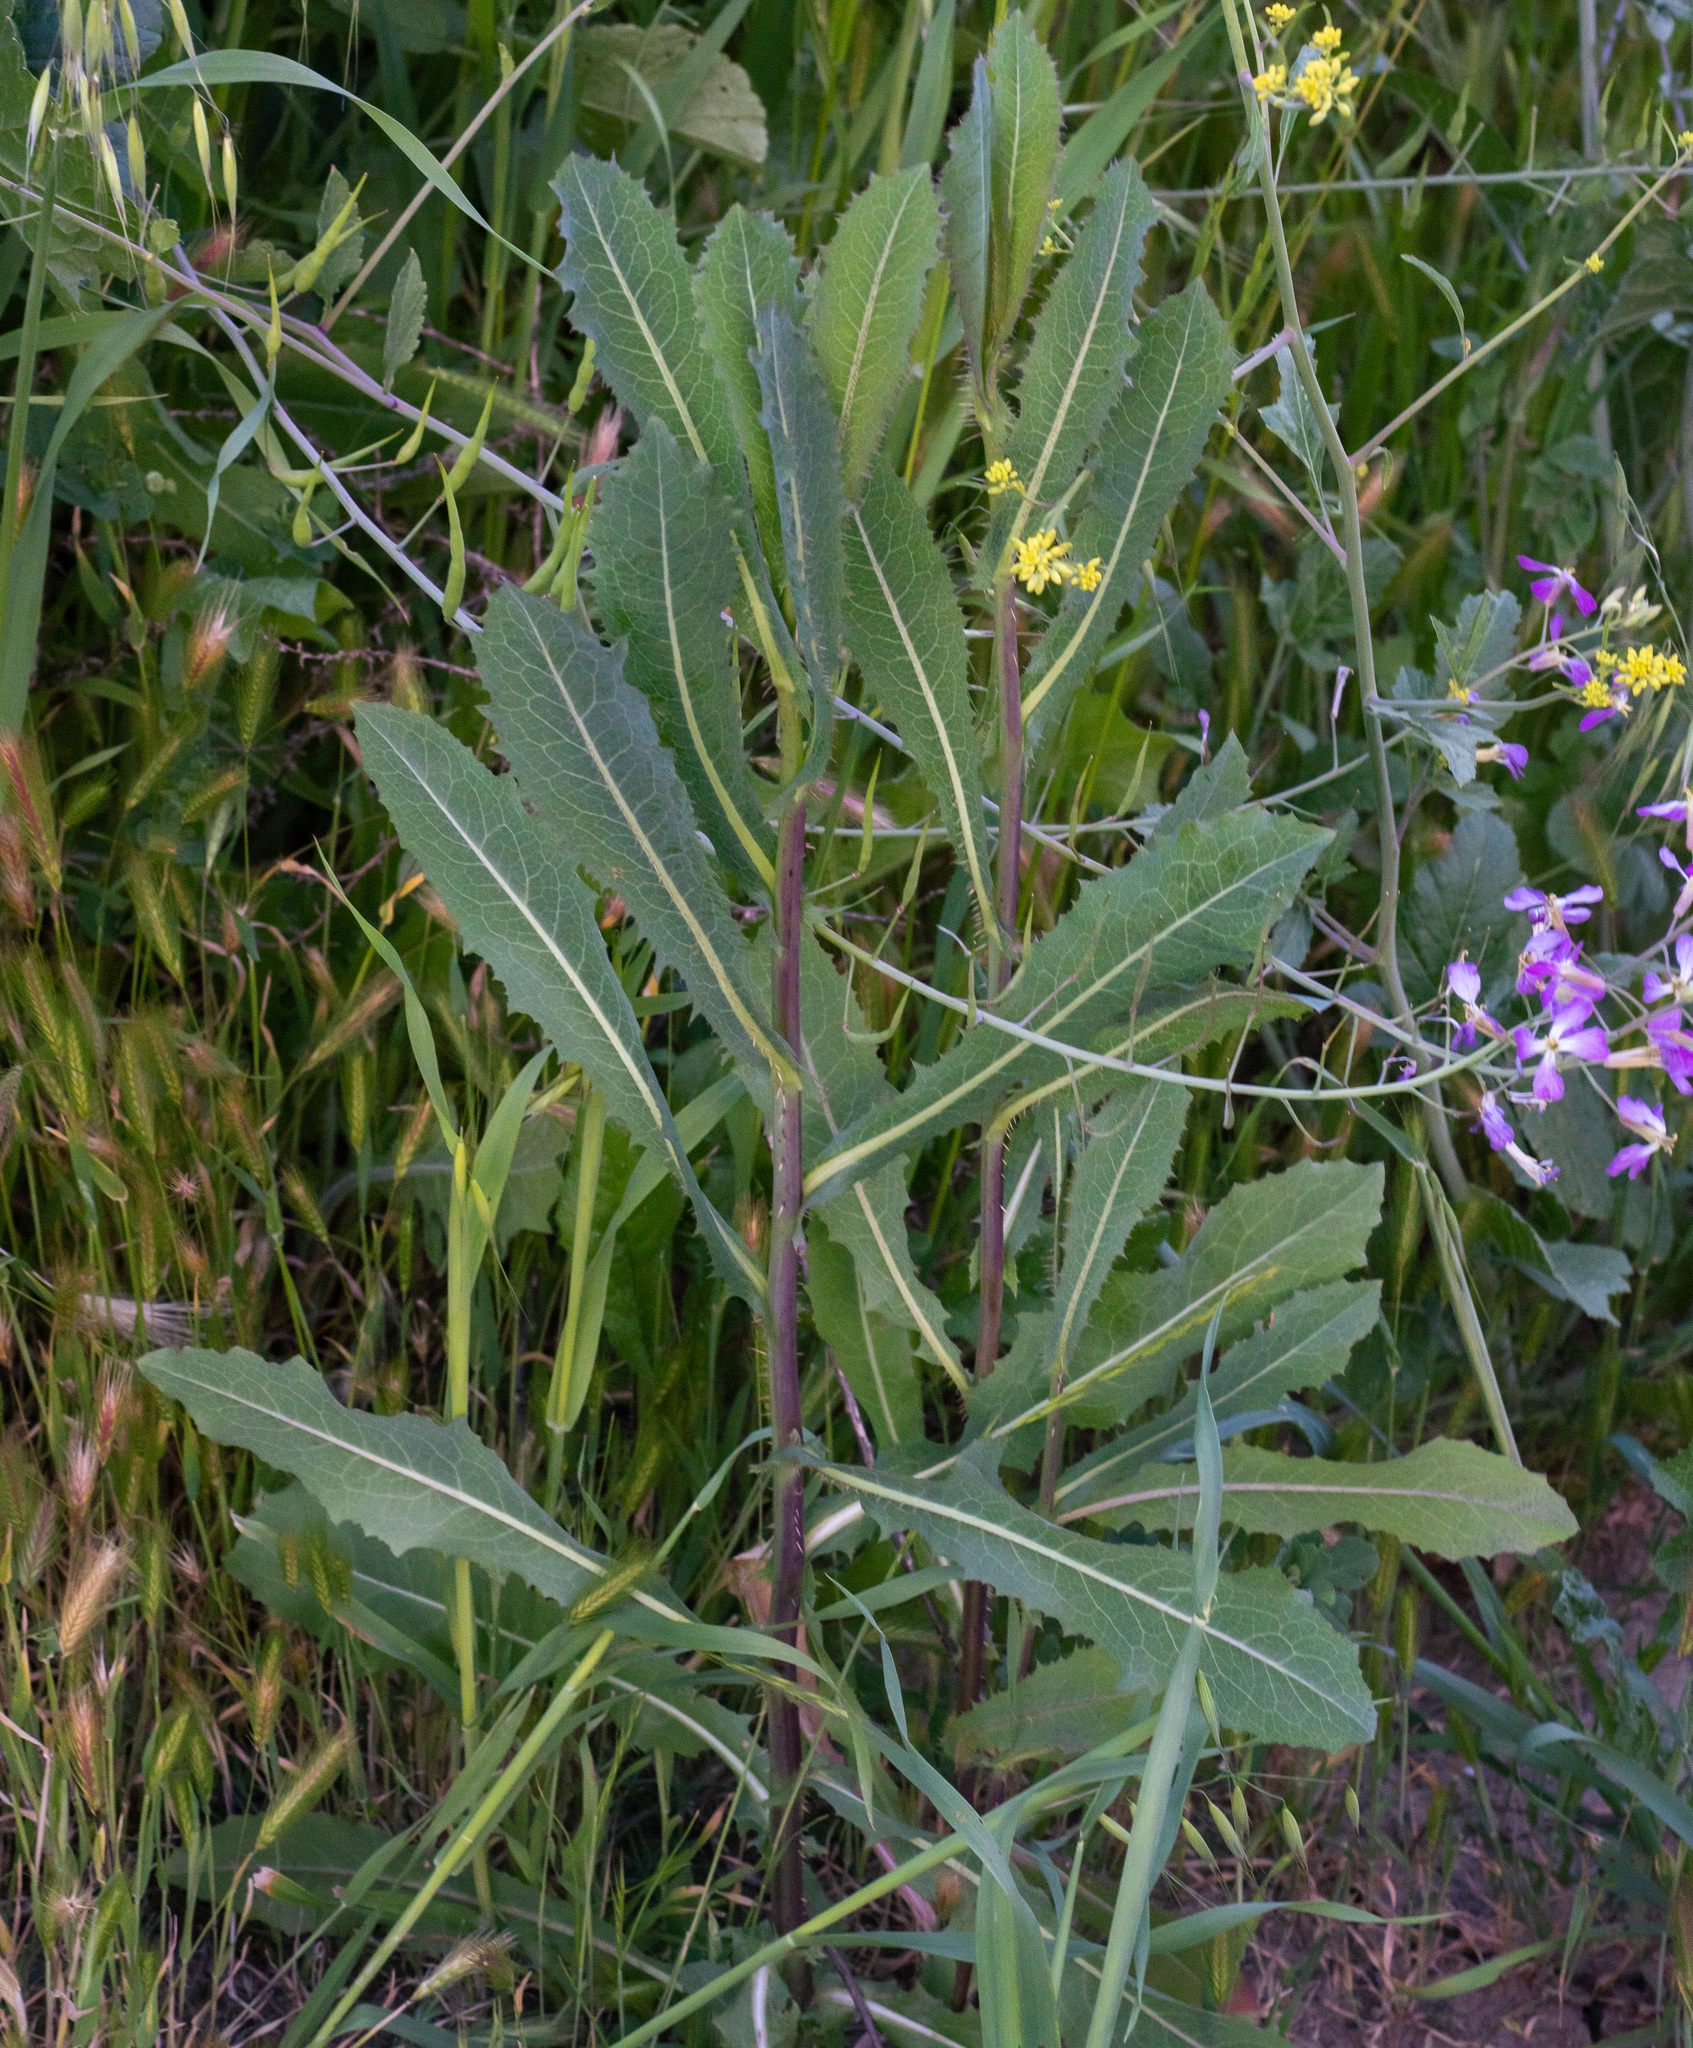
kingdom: Plantae
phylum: Tracheophyta
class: Magnoliopsida
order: Asterales
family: Asteraceae
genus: Lactuca
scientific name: Lactuca serriola
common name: Prickly lettuce
